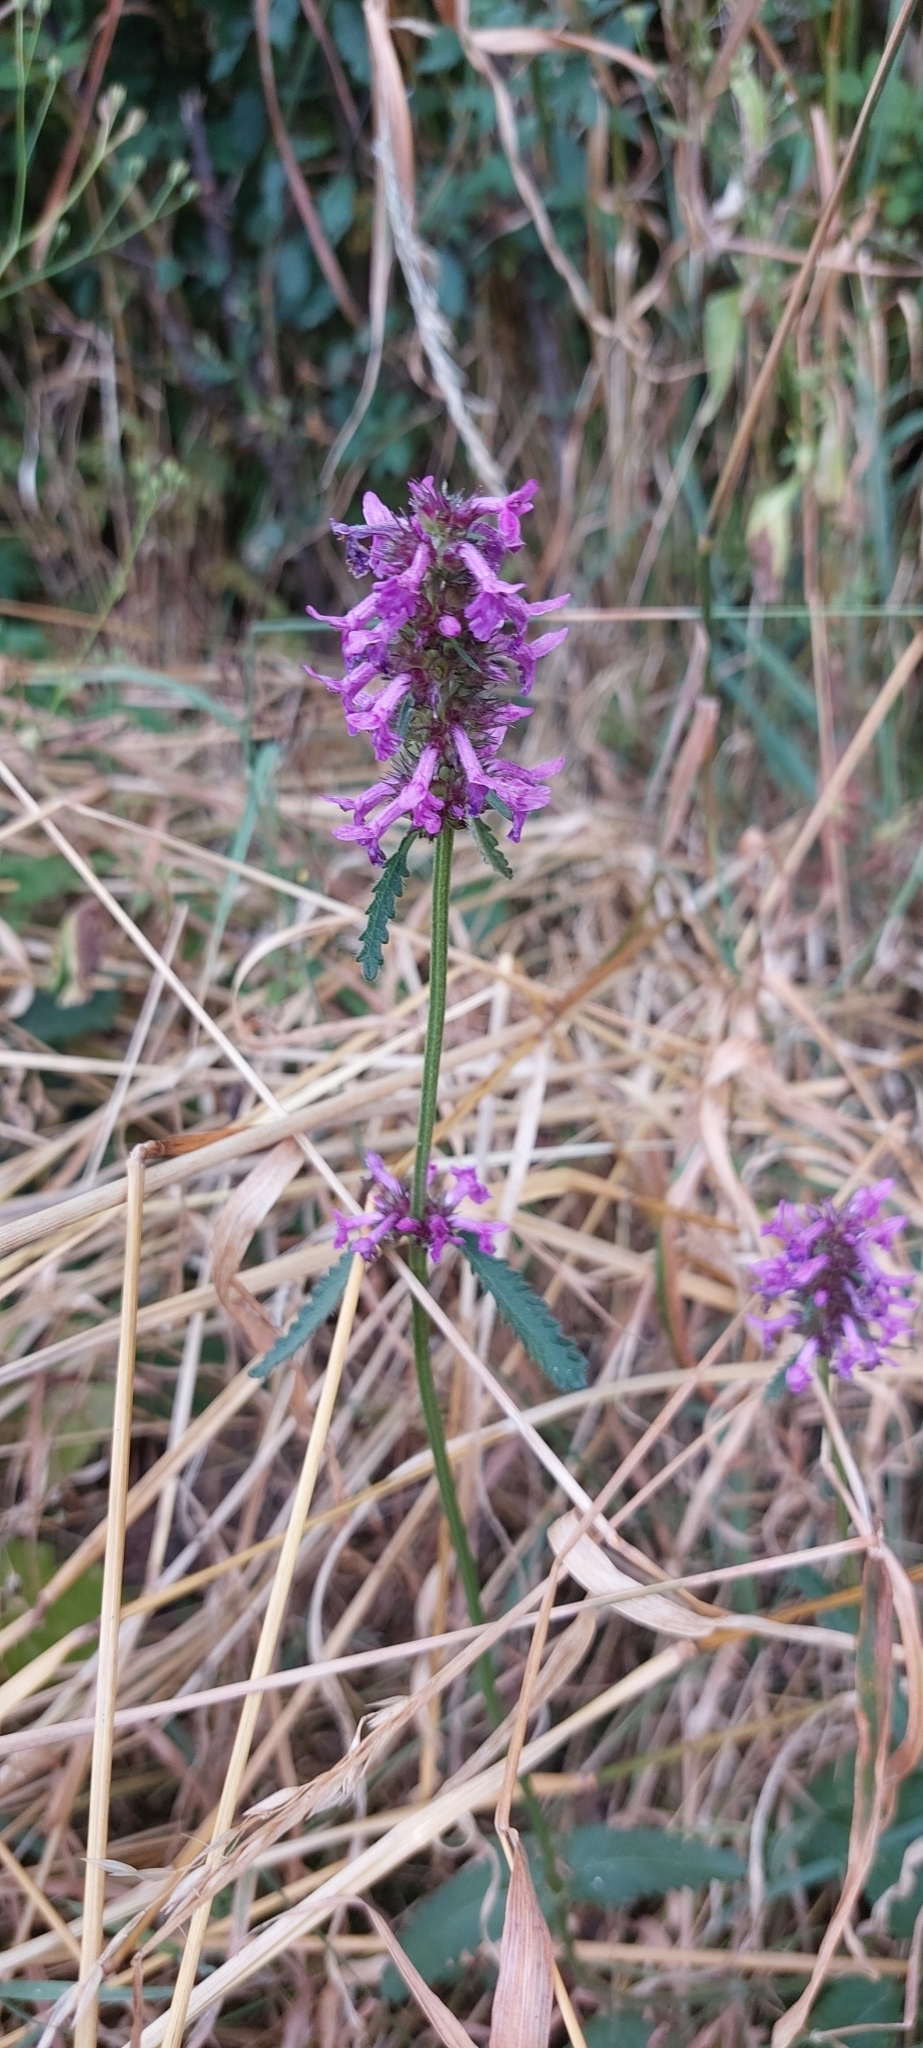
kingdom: Plantae
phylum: Tracheophyta
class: Magnoliopsida
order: Lamiales
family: Lamiaceae
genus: Betonica
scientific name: Betonica officinalis
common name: Bishop's-wort
